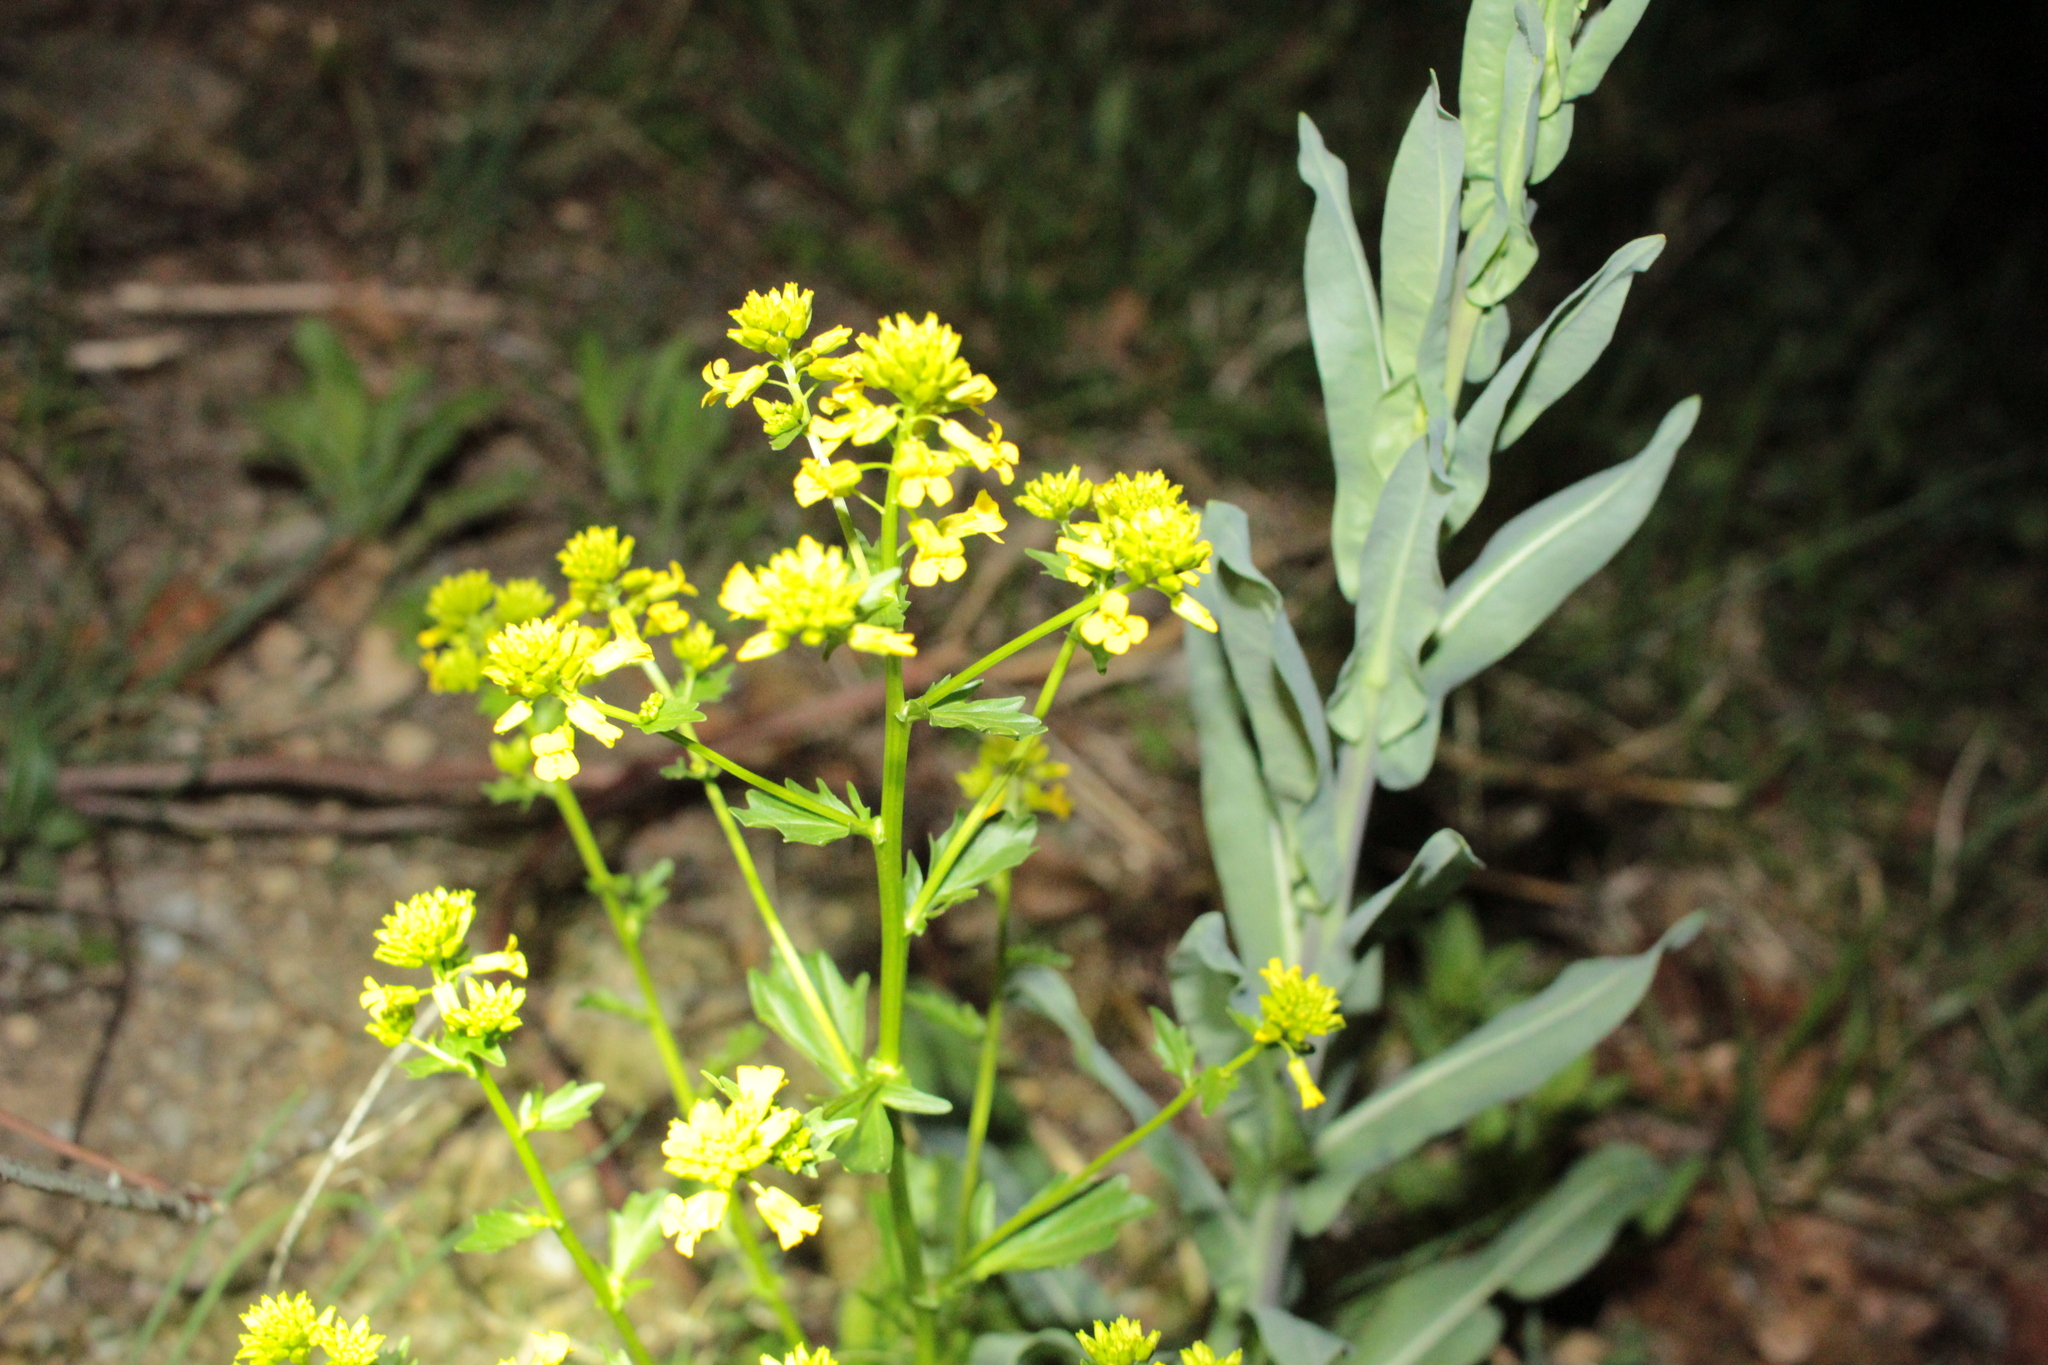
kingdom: Plantae
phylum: Tracheophyta
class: Magnoliopsida
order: Brassicales
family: Brassicaceae
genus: Barbarea
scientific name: Barbarea vulgaris
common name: Cressy-greens
